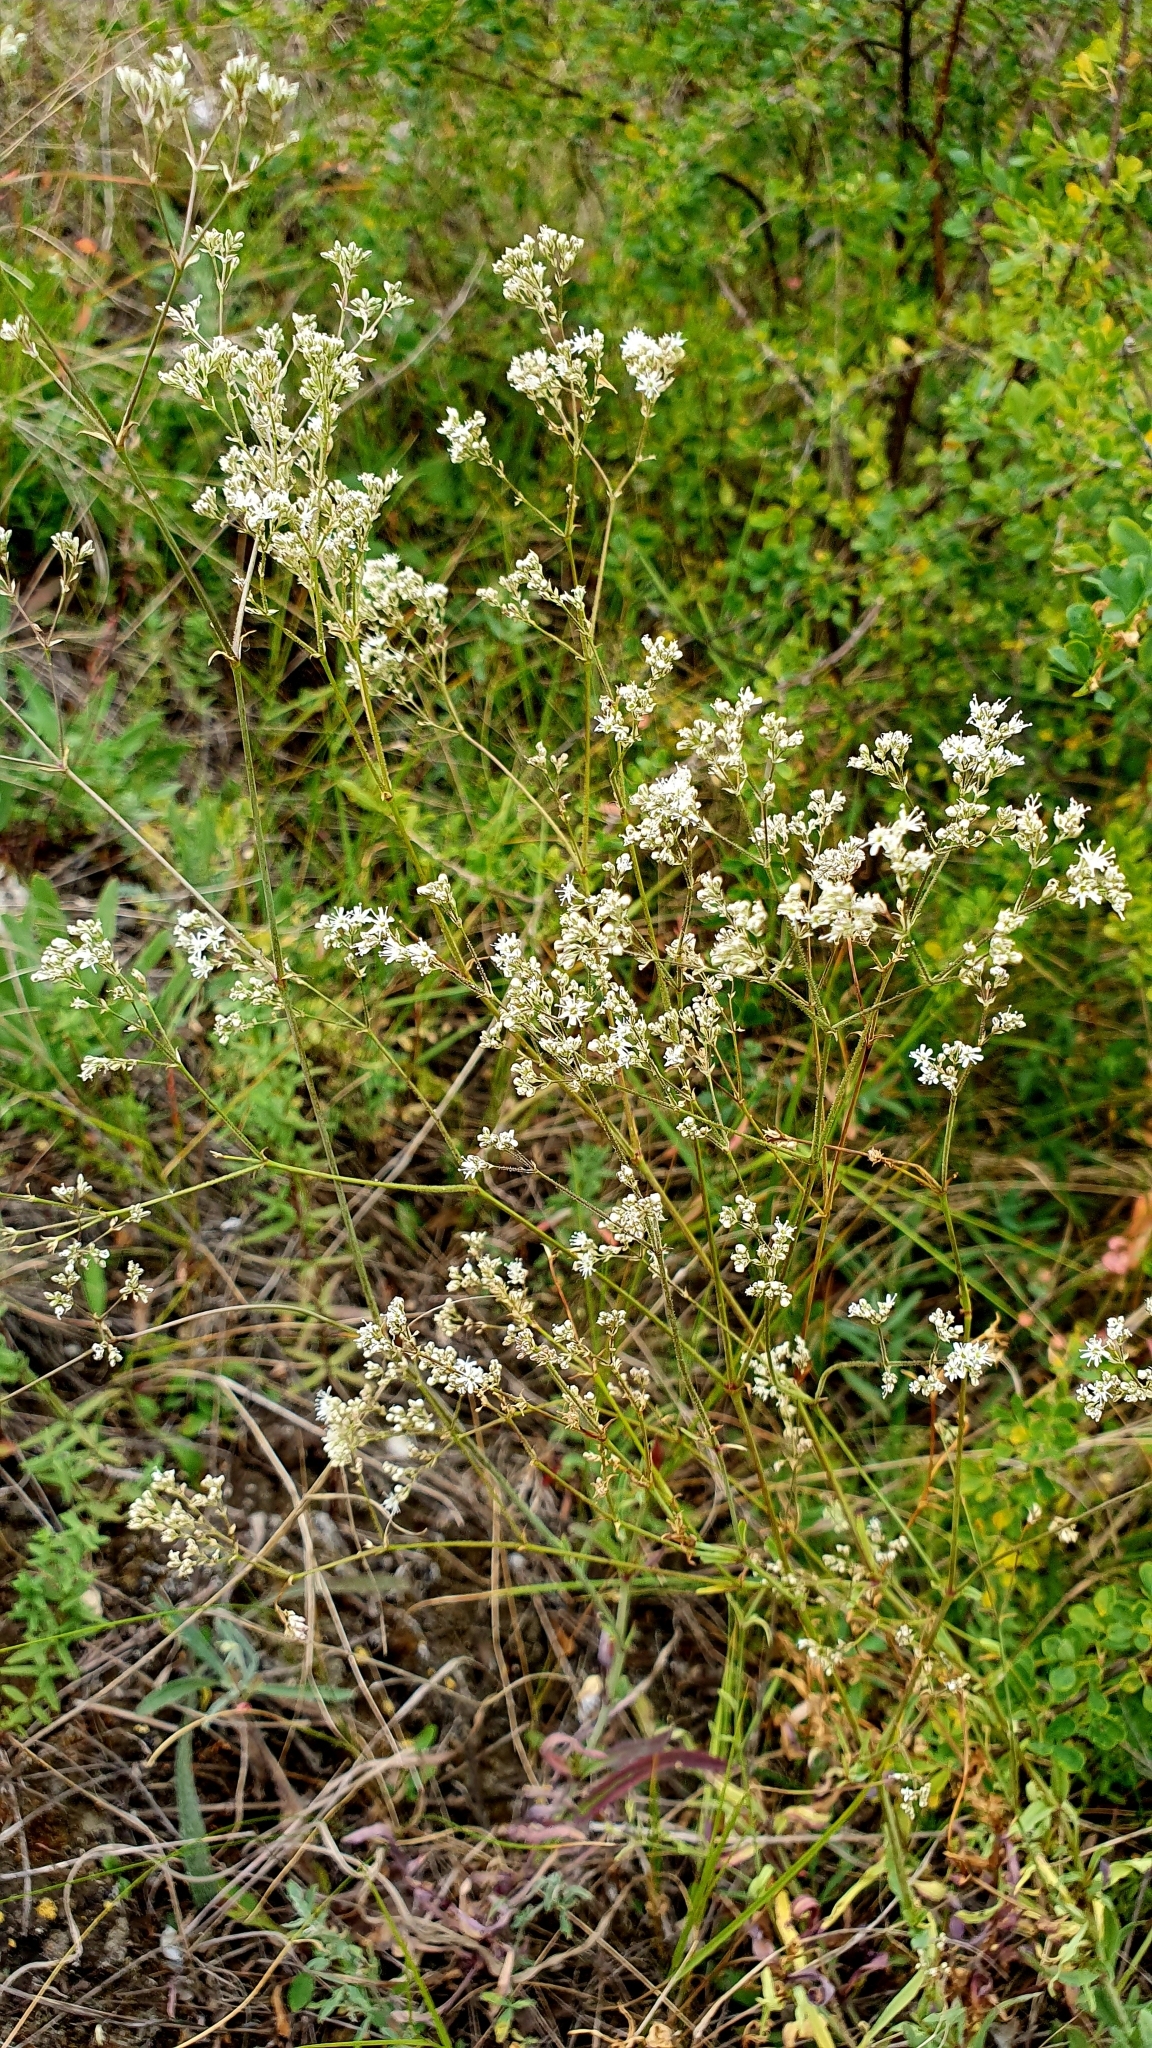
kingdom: Plantae
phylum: Tracheophyta
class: Magnoliopsida
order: Caryophyllales
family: Caryophyllaceae
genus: Gypsophila
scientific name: Gypsophila altissima
